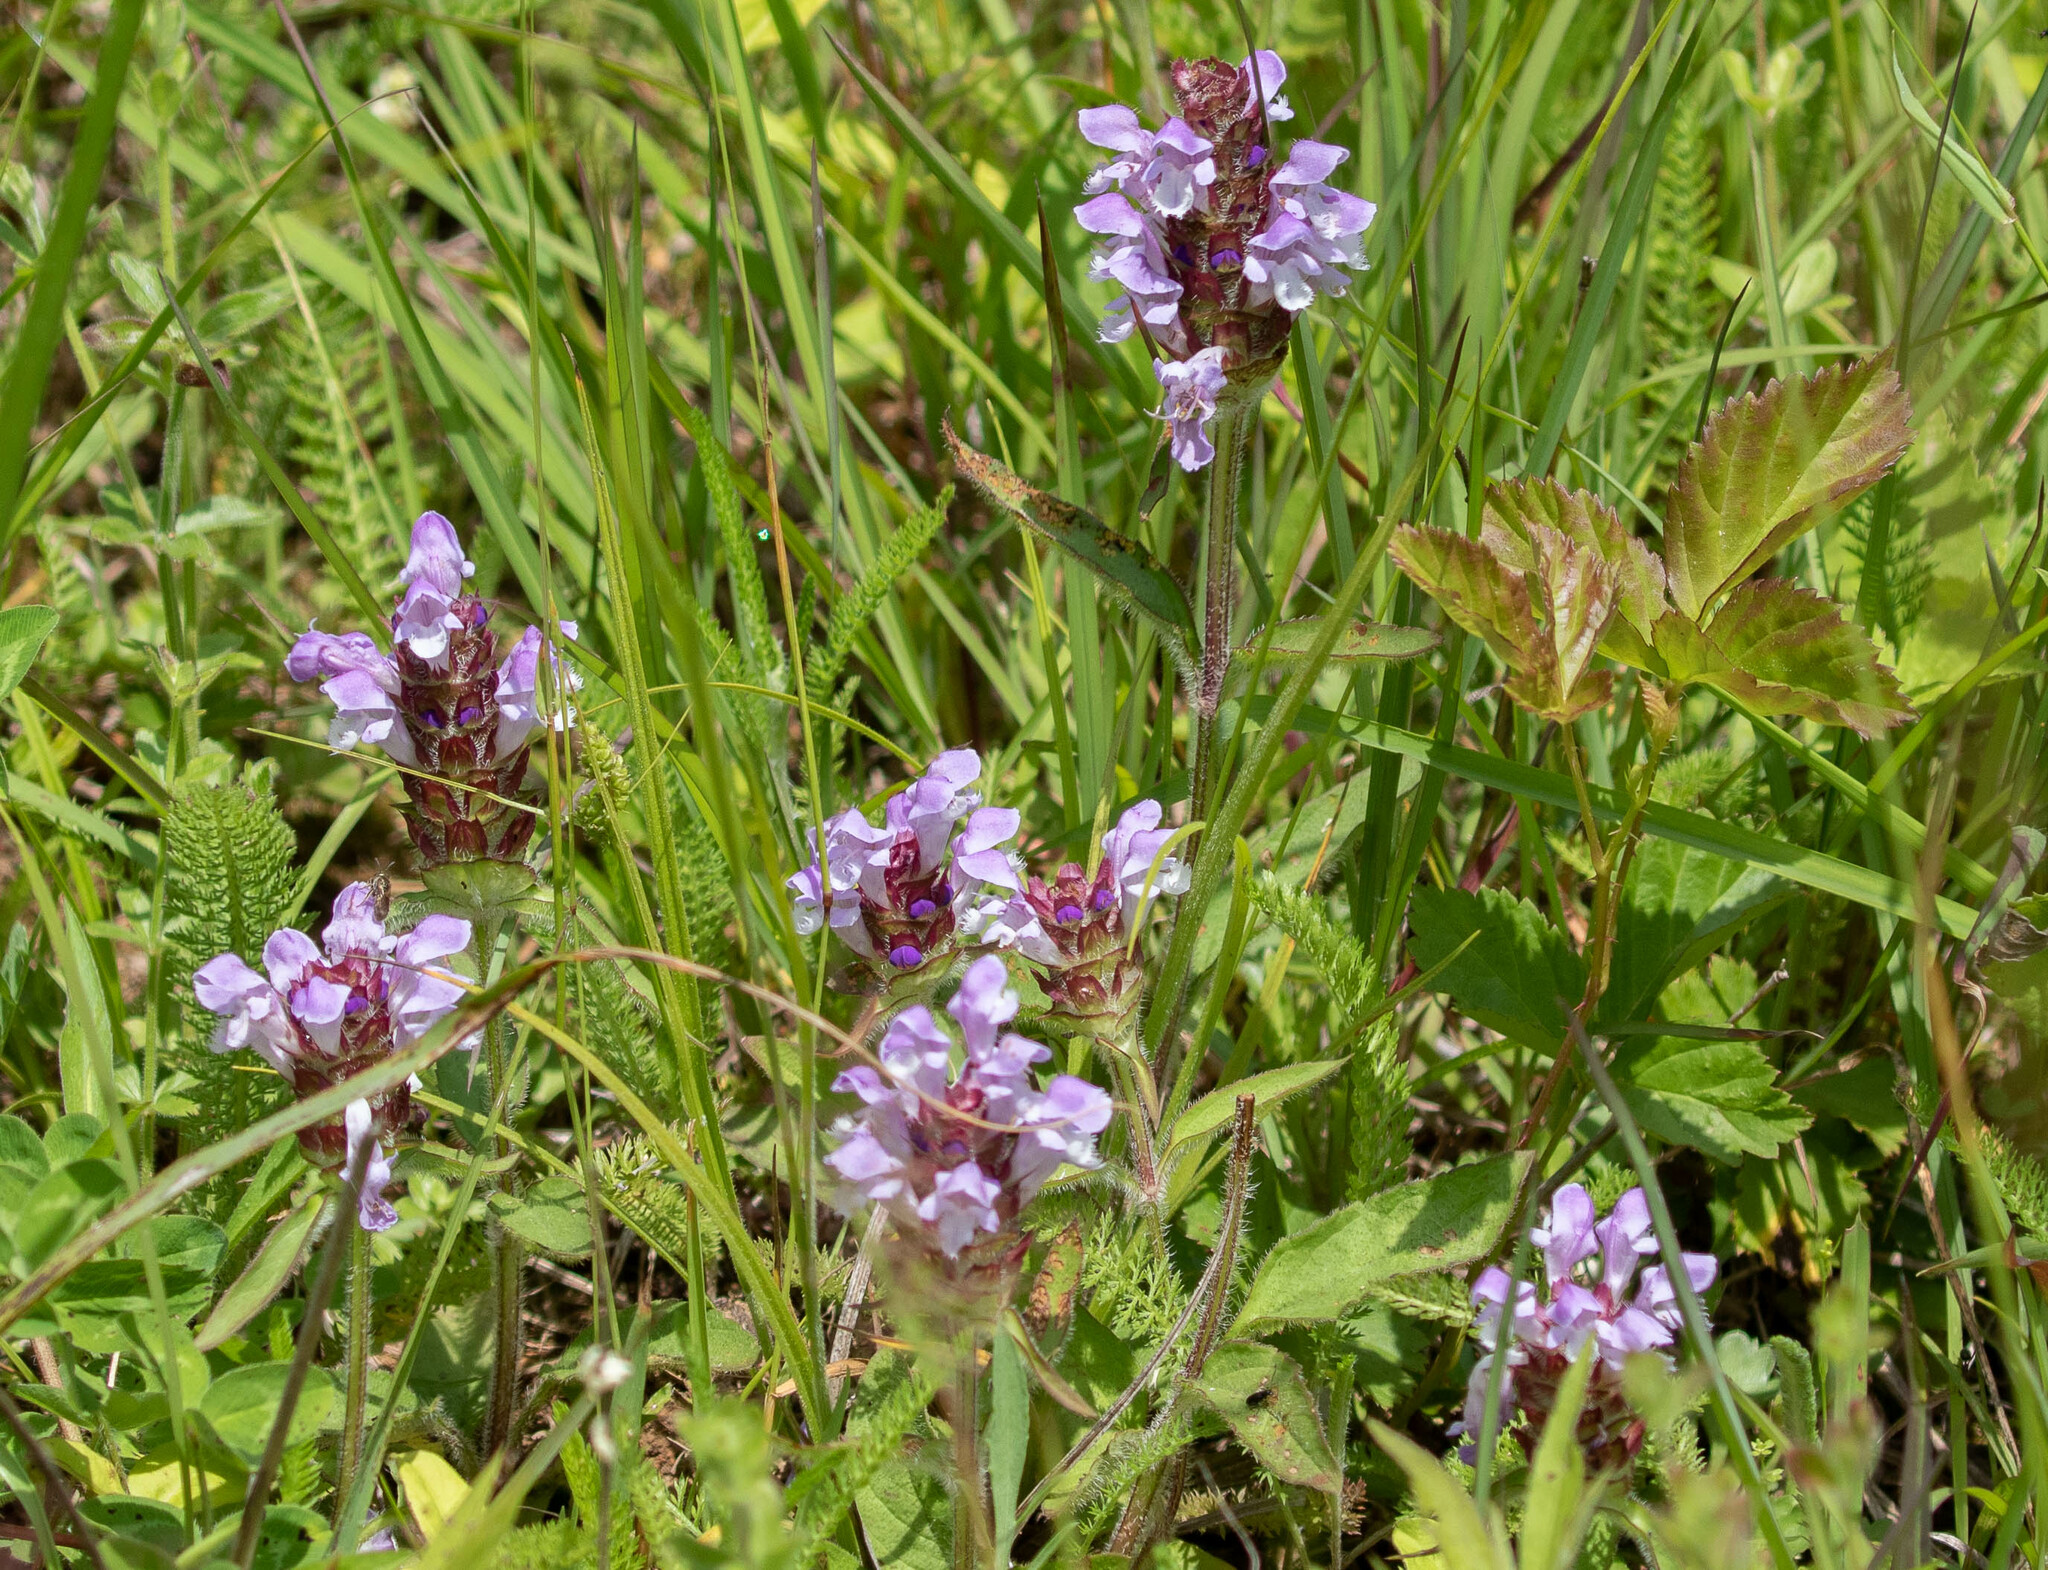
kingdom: Plantae
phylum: Tracheophyta
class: Magnoliopsida
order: Lamiales
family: Lamiaceae
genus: Prunella
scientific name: Prunella vulgaris
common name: Heal-all
